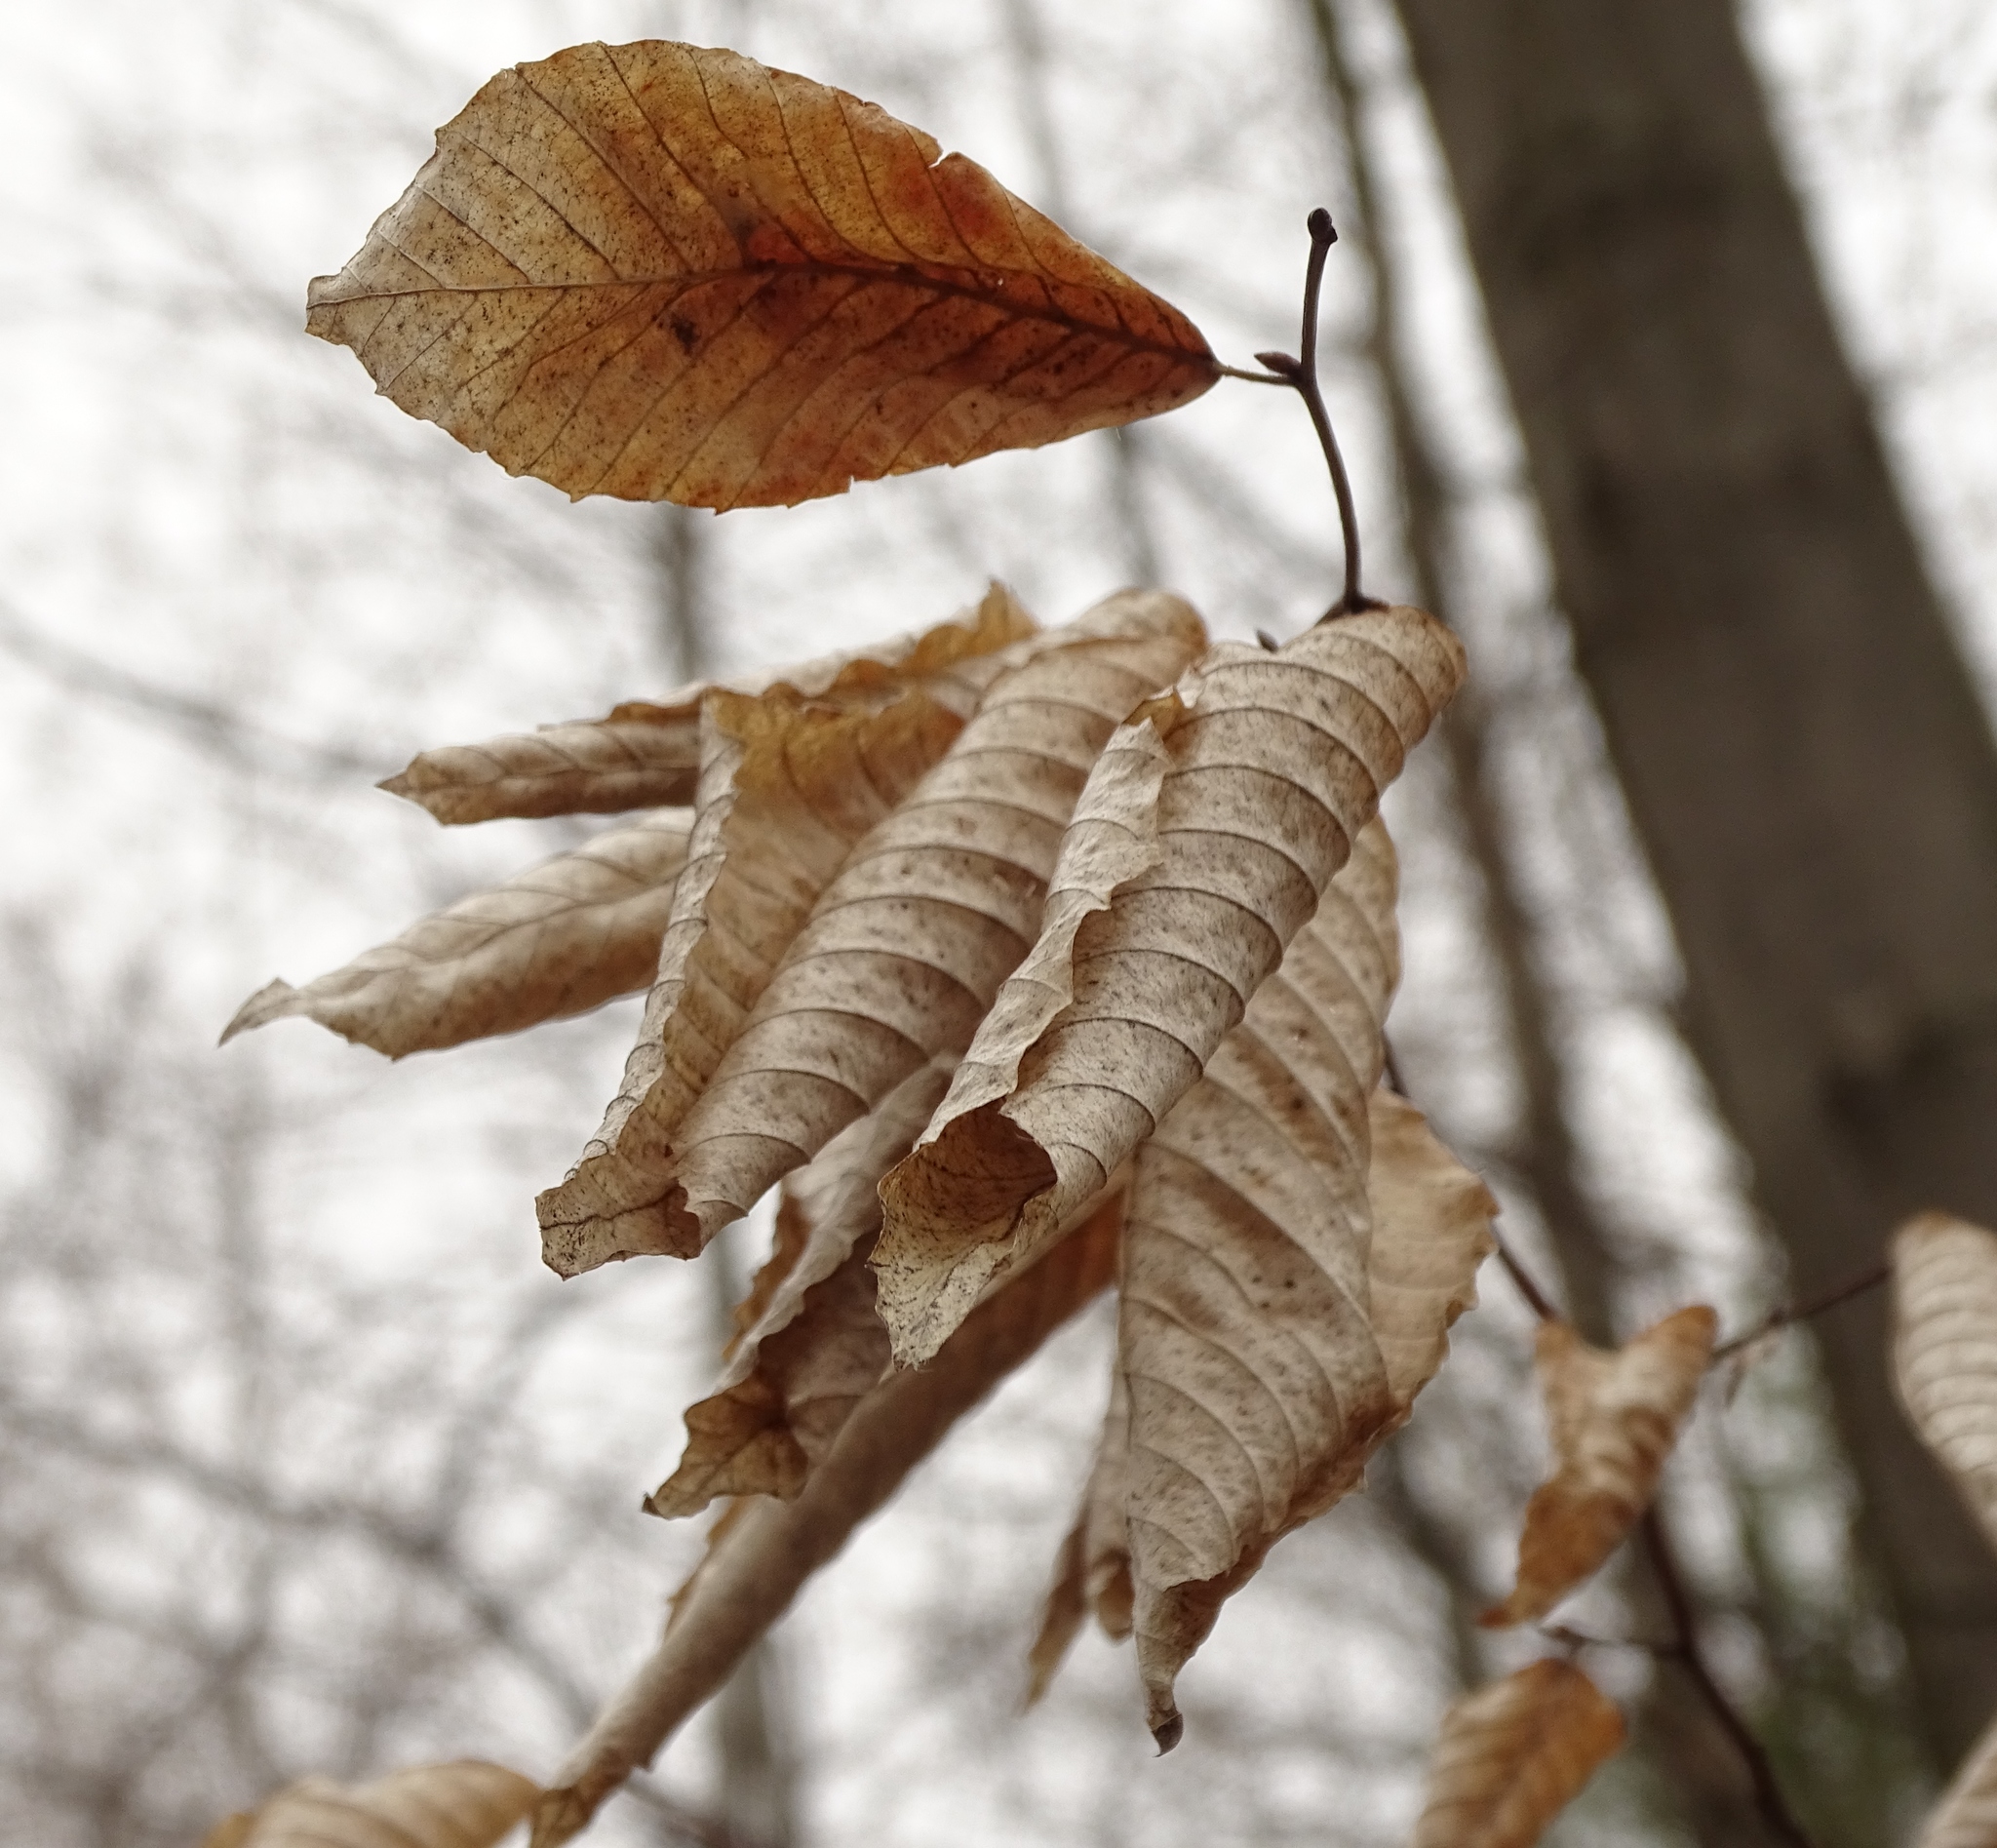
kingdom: Plantae
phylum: Tracheophyta
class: Magnoliopsida
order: Fagales
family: Fagaceae
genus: Fagus
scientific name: Fagus grandifolia
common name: American beech
